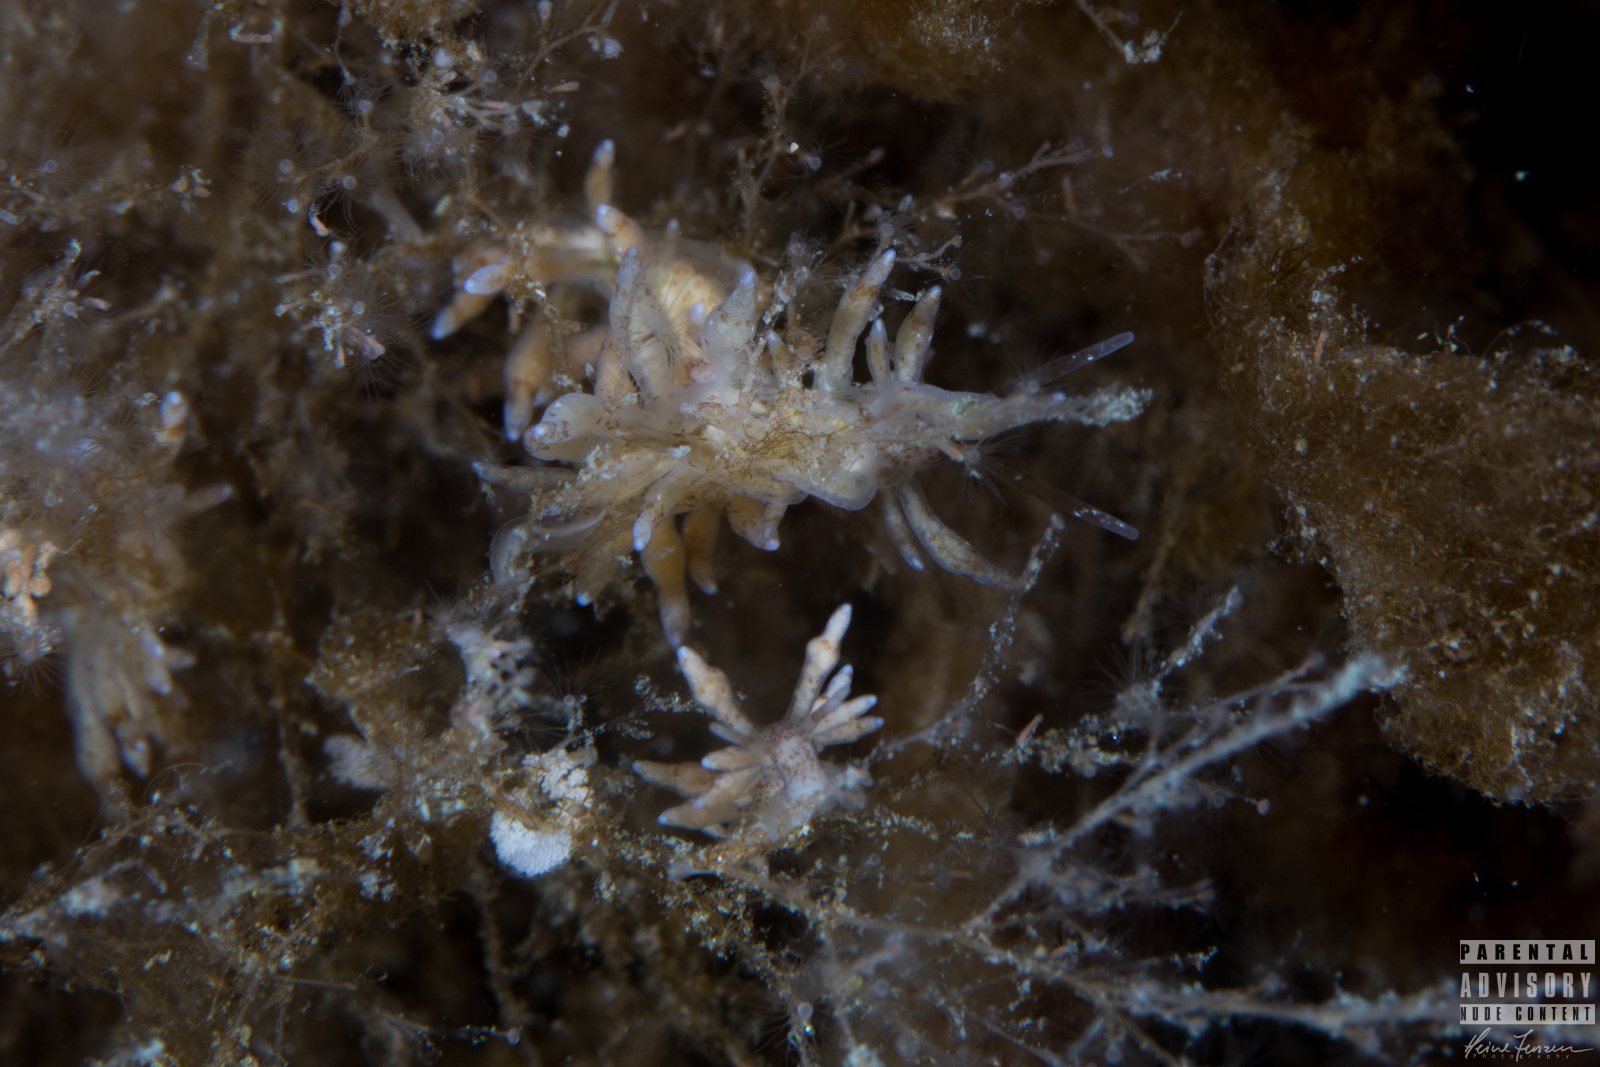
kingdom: Animalia
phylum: Mollusca
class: Gastropoda
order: Nudibranchia
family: Eubranchidae
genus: Eubranchus
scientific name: Eubranchus rupium
